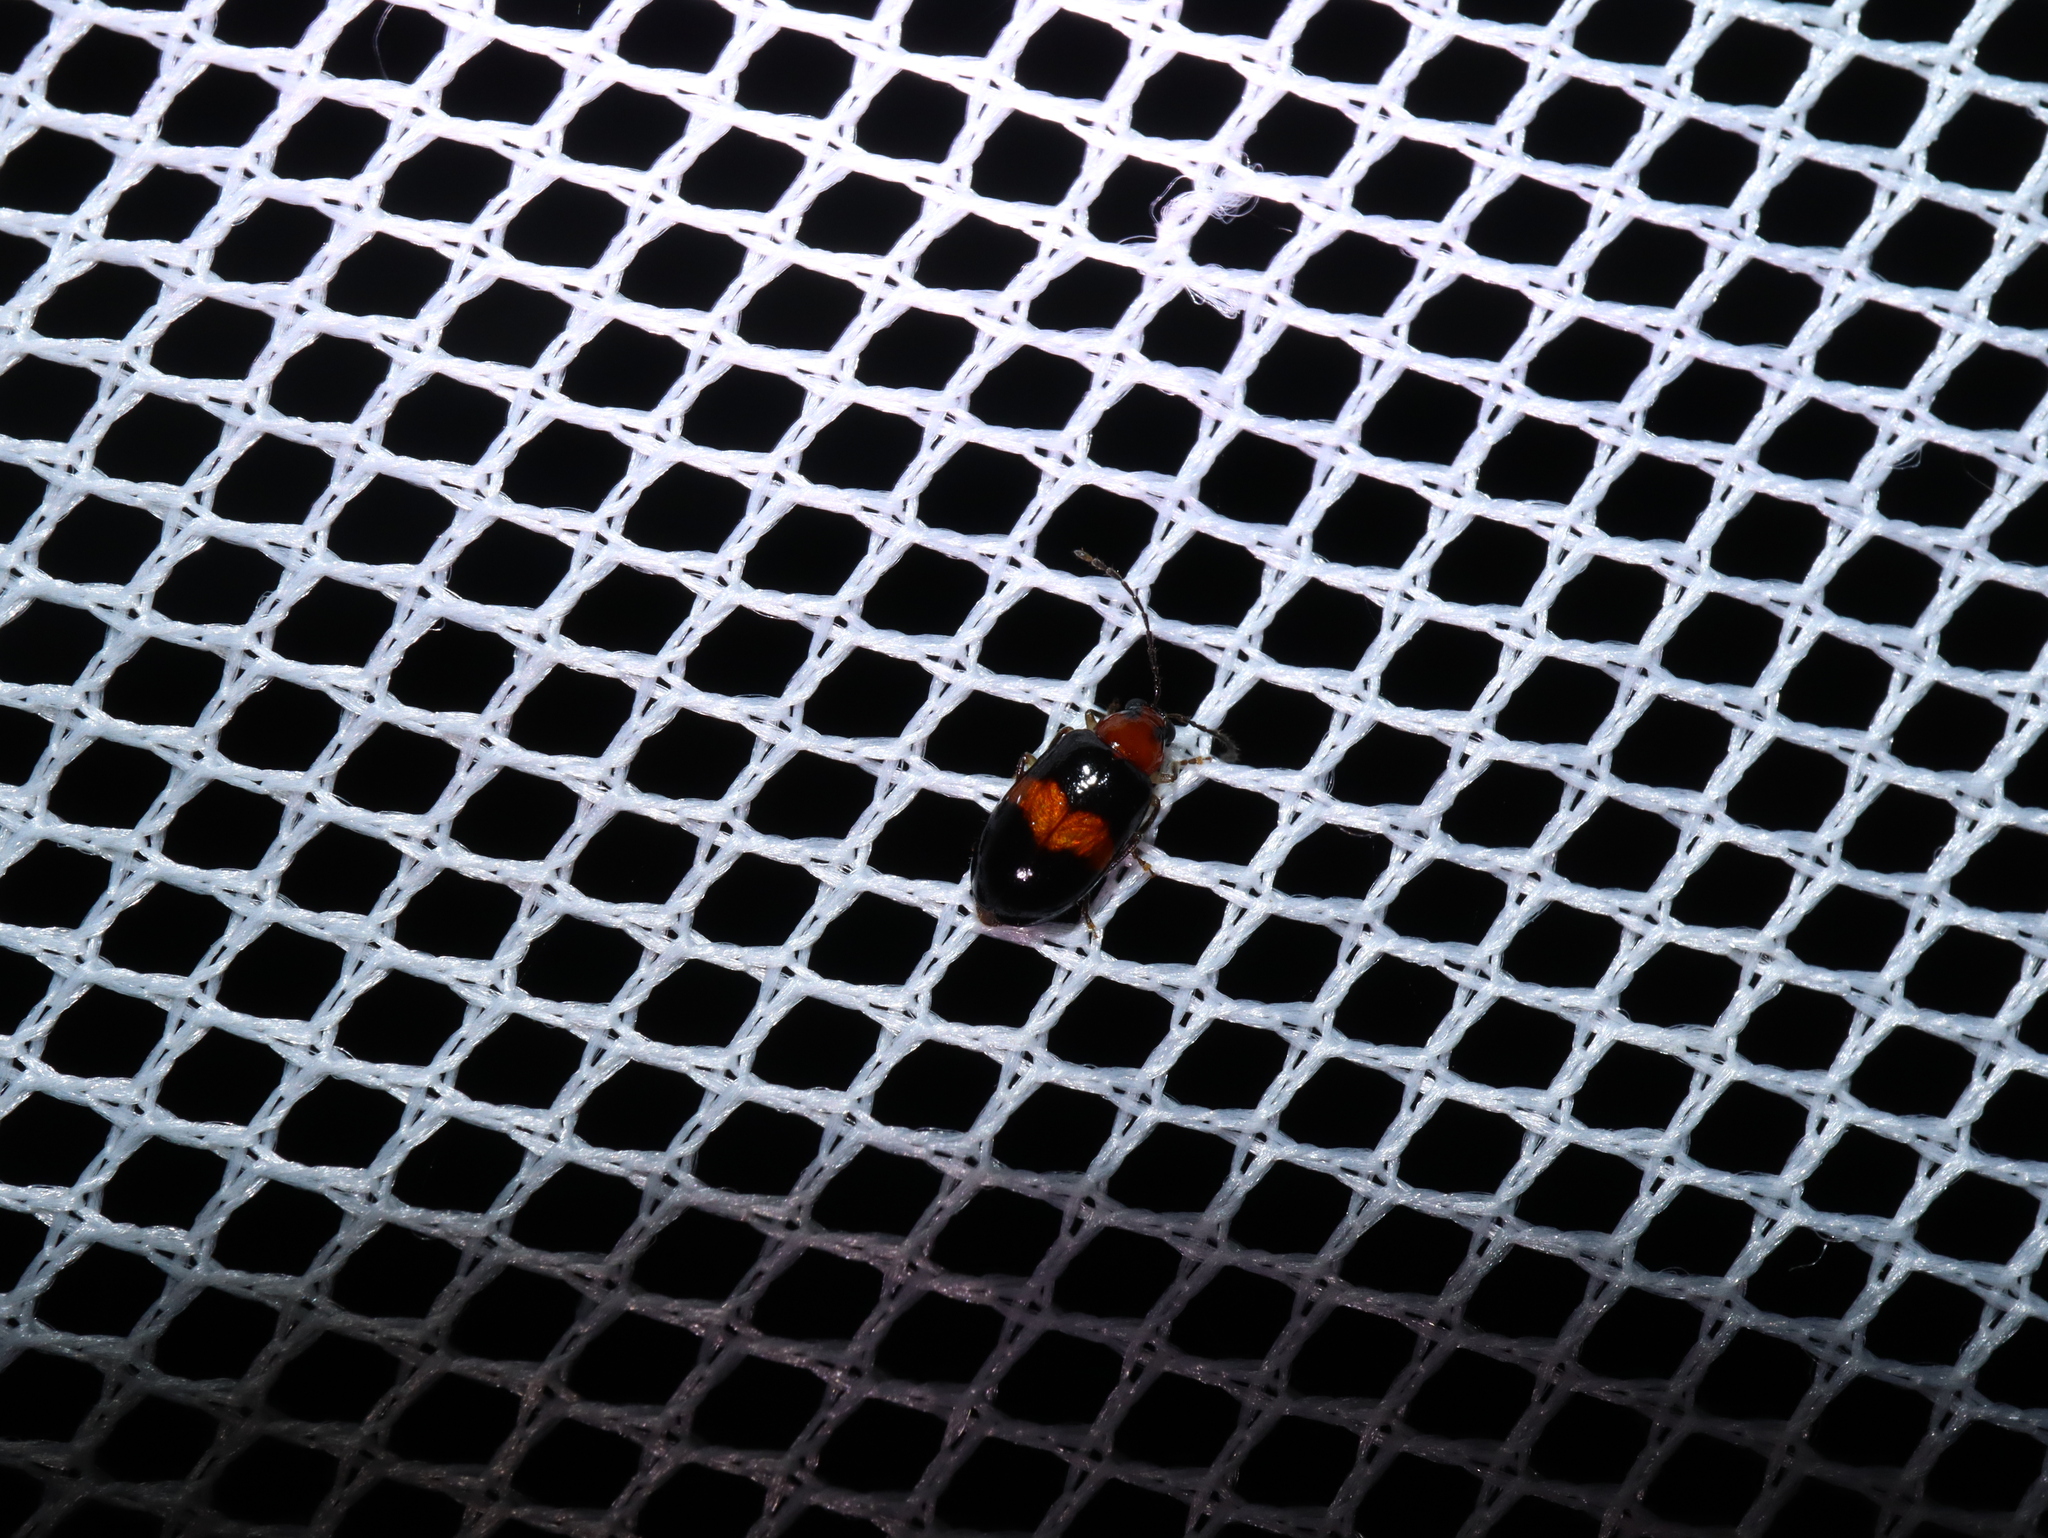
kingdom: Animalia
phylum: Arthropoda
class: Insecta
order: Coleoptera
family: Chrysomelidae
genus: Monolepta
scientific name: Monolepta
